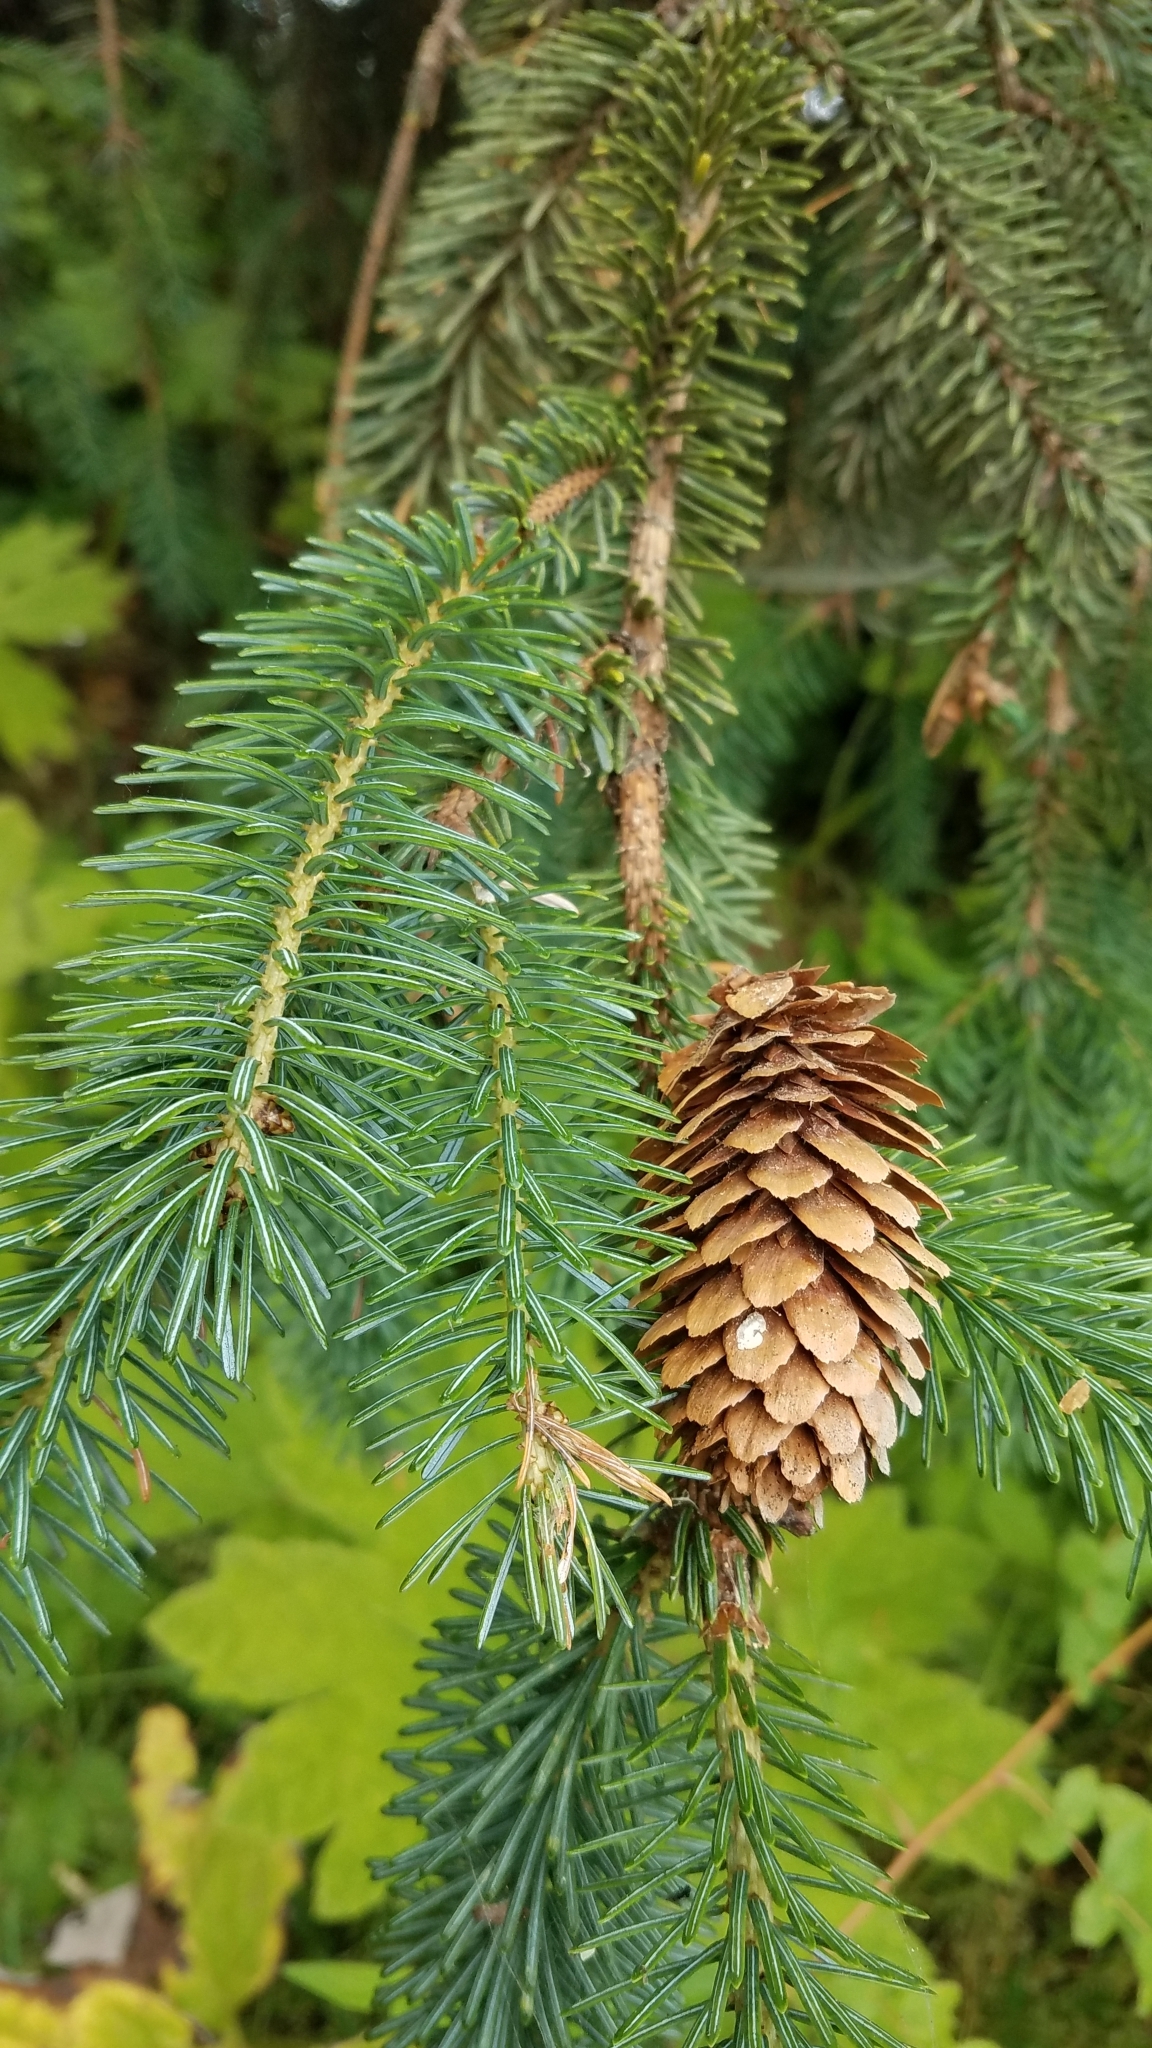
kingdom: Plantae
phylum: Tracheophyta
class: Pinopsida
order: Pinales
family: Pinaceae
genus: Picea
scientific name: Picea sitchensis
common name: Sitka spruce
